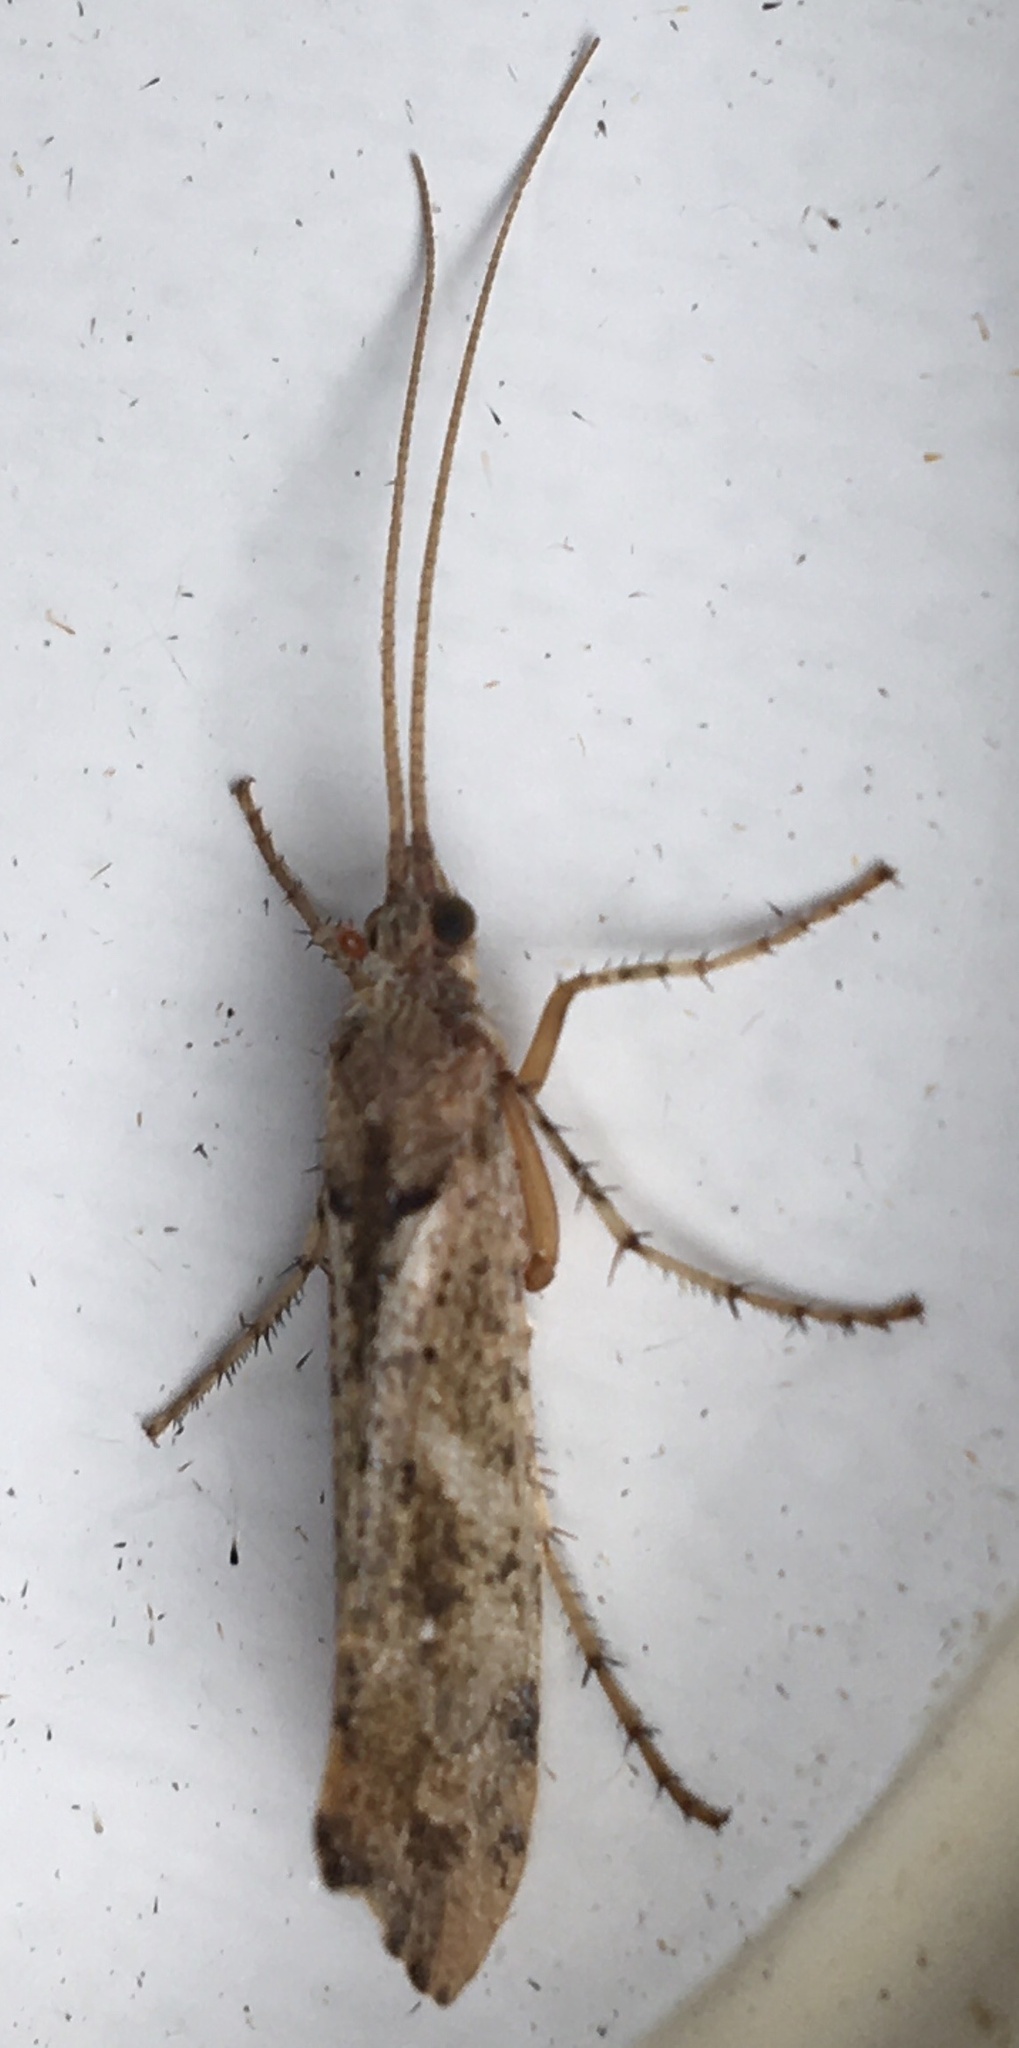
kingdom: Animalia
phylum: Arthropoda
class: Insecta
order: Trichoptera
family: Limnephilidae
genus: Glyphotaelius
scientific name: Glyphotaelius pellucidus
